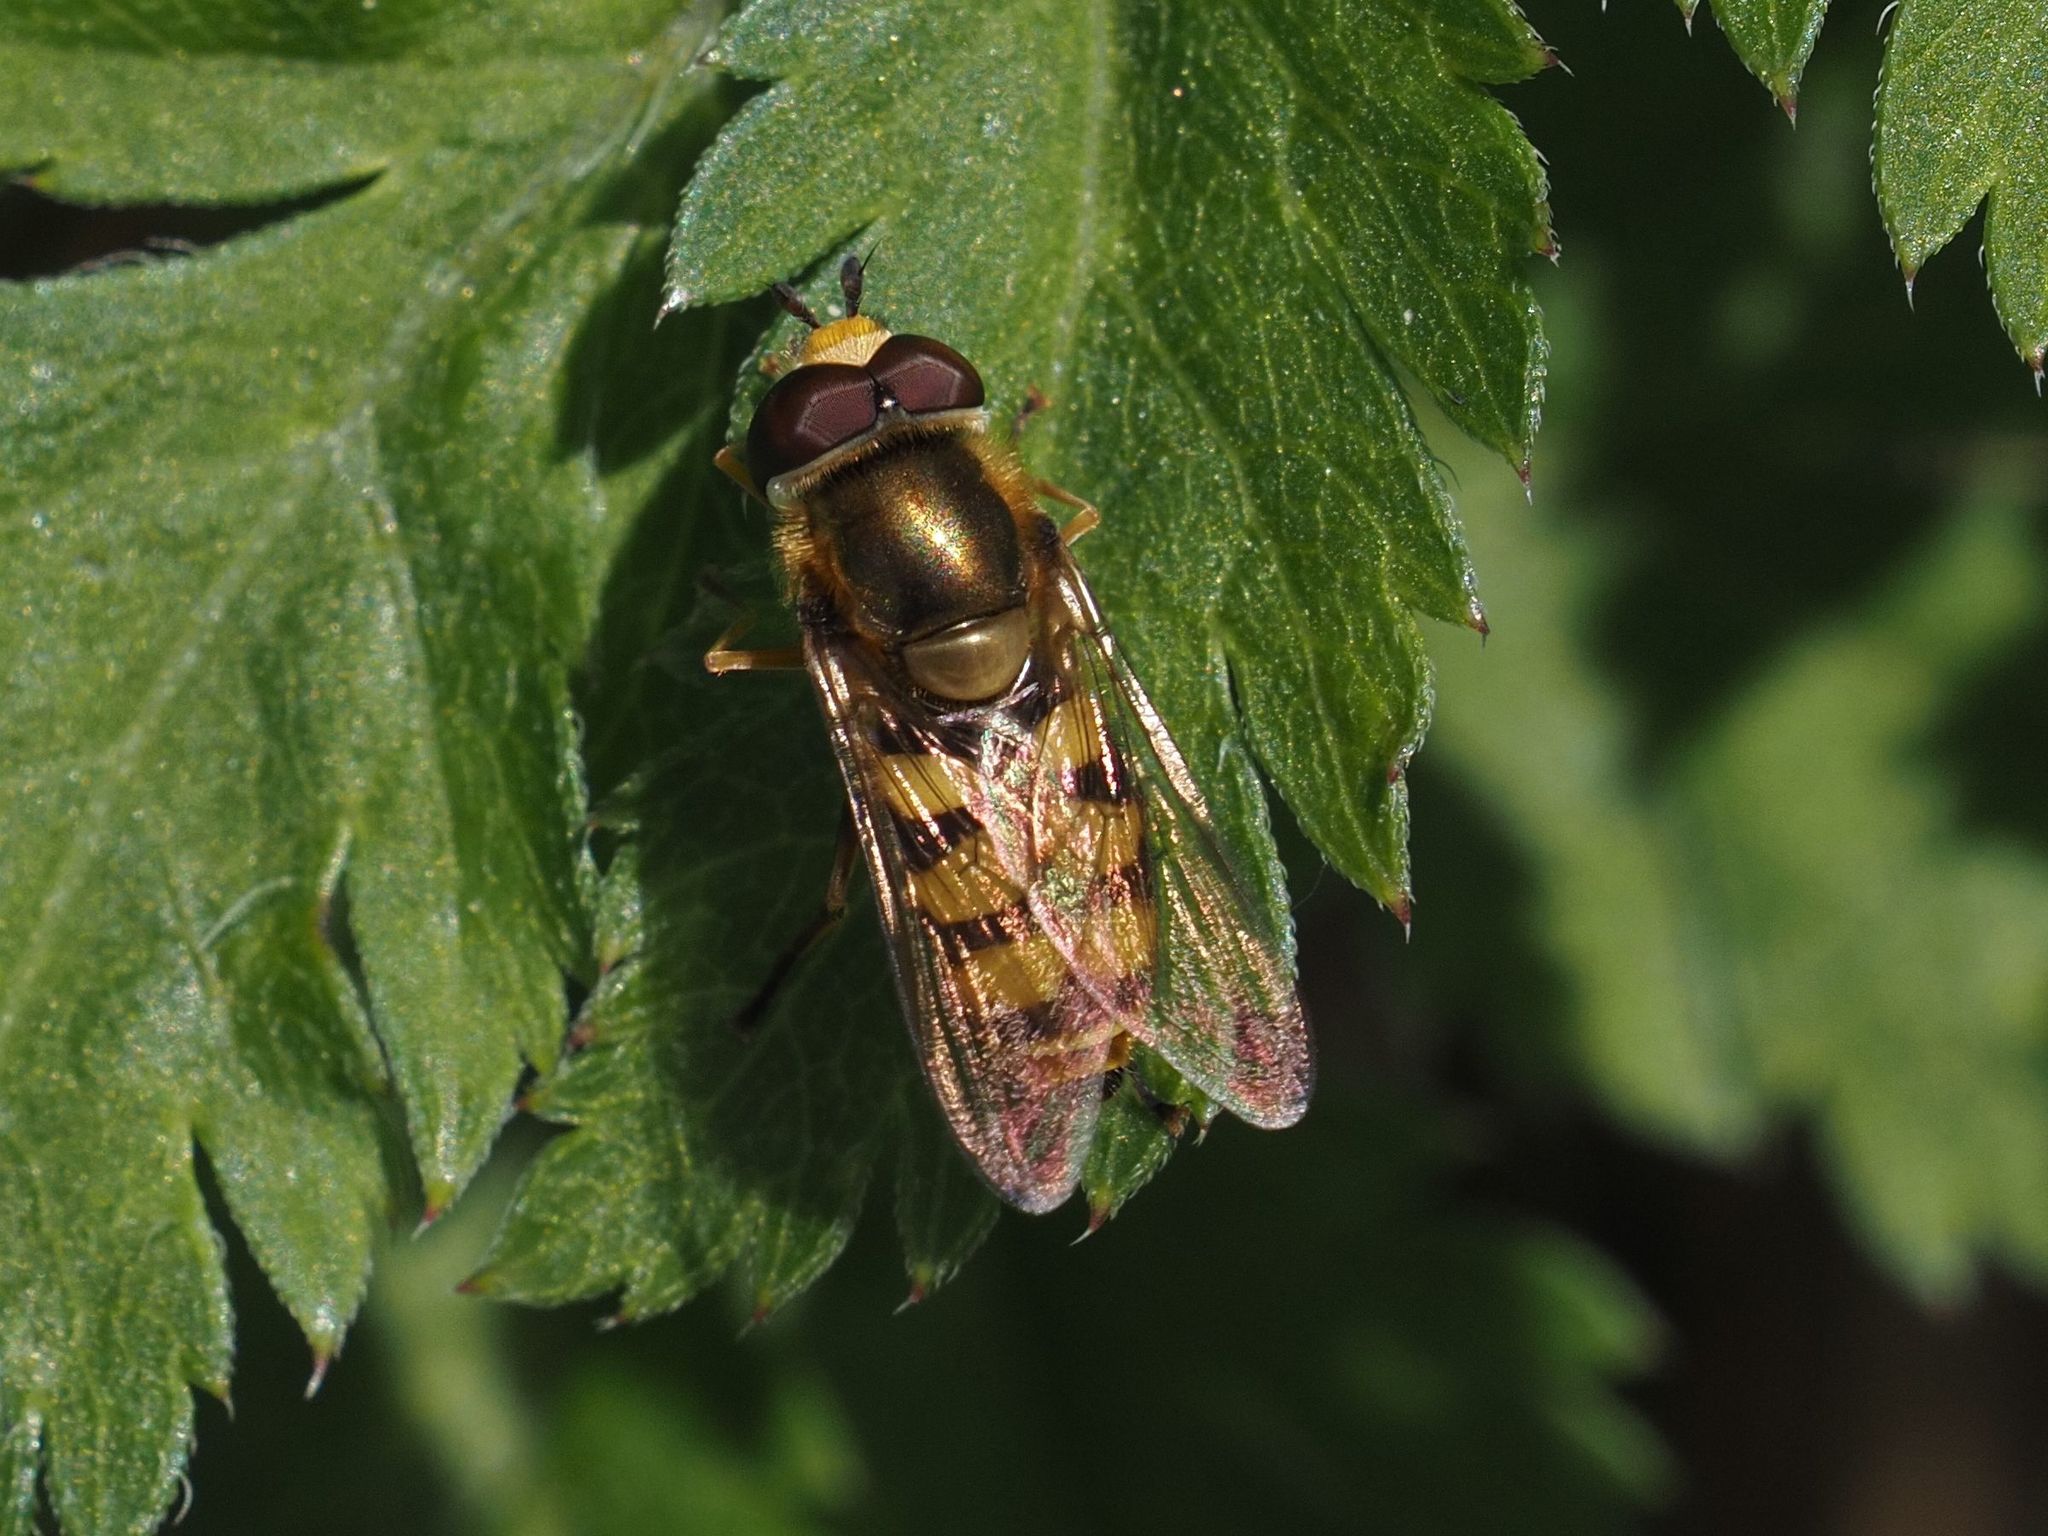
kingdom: Animalia
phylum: Arthropoda
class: Insecta
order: Diptera
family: Syrphidae
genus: Eupeodes
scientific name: Eupeodes corollae
